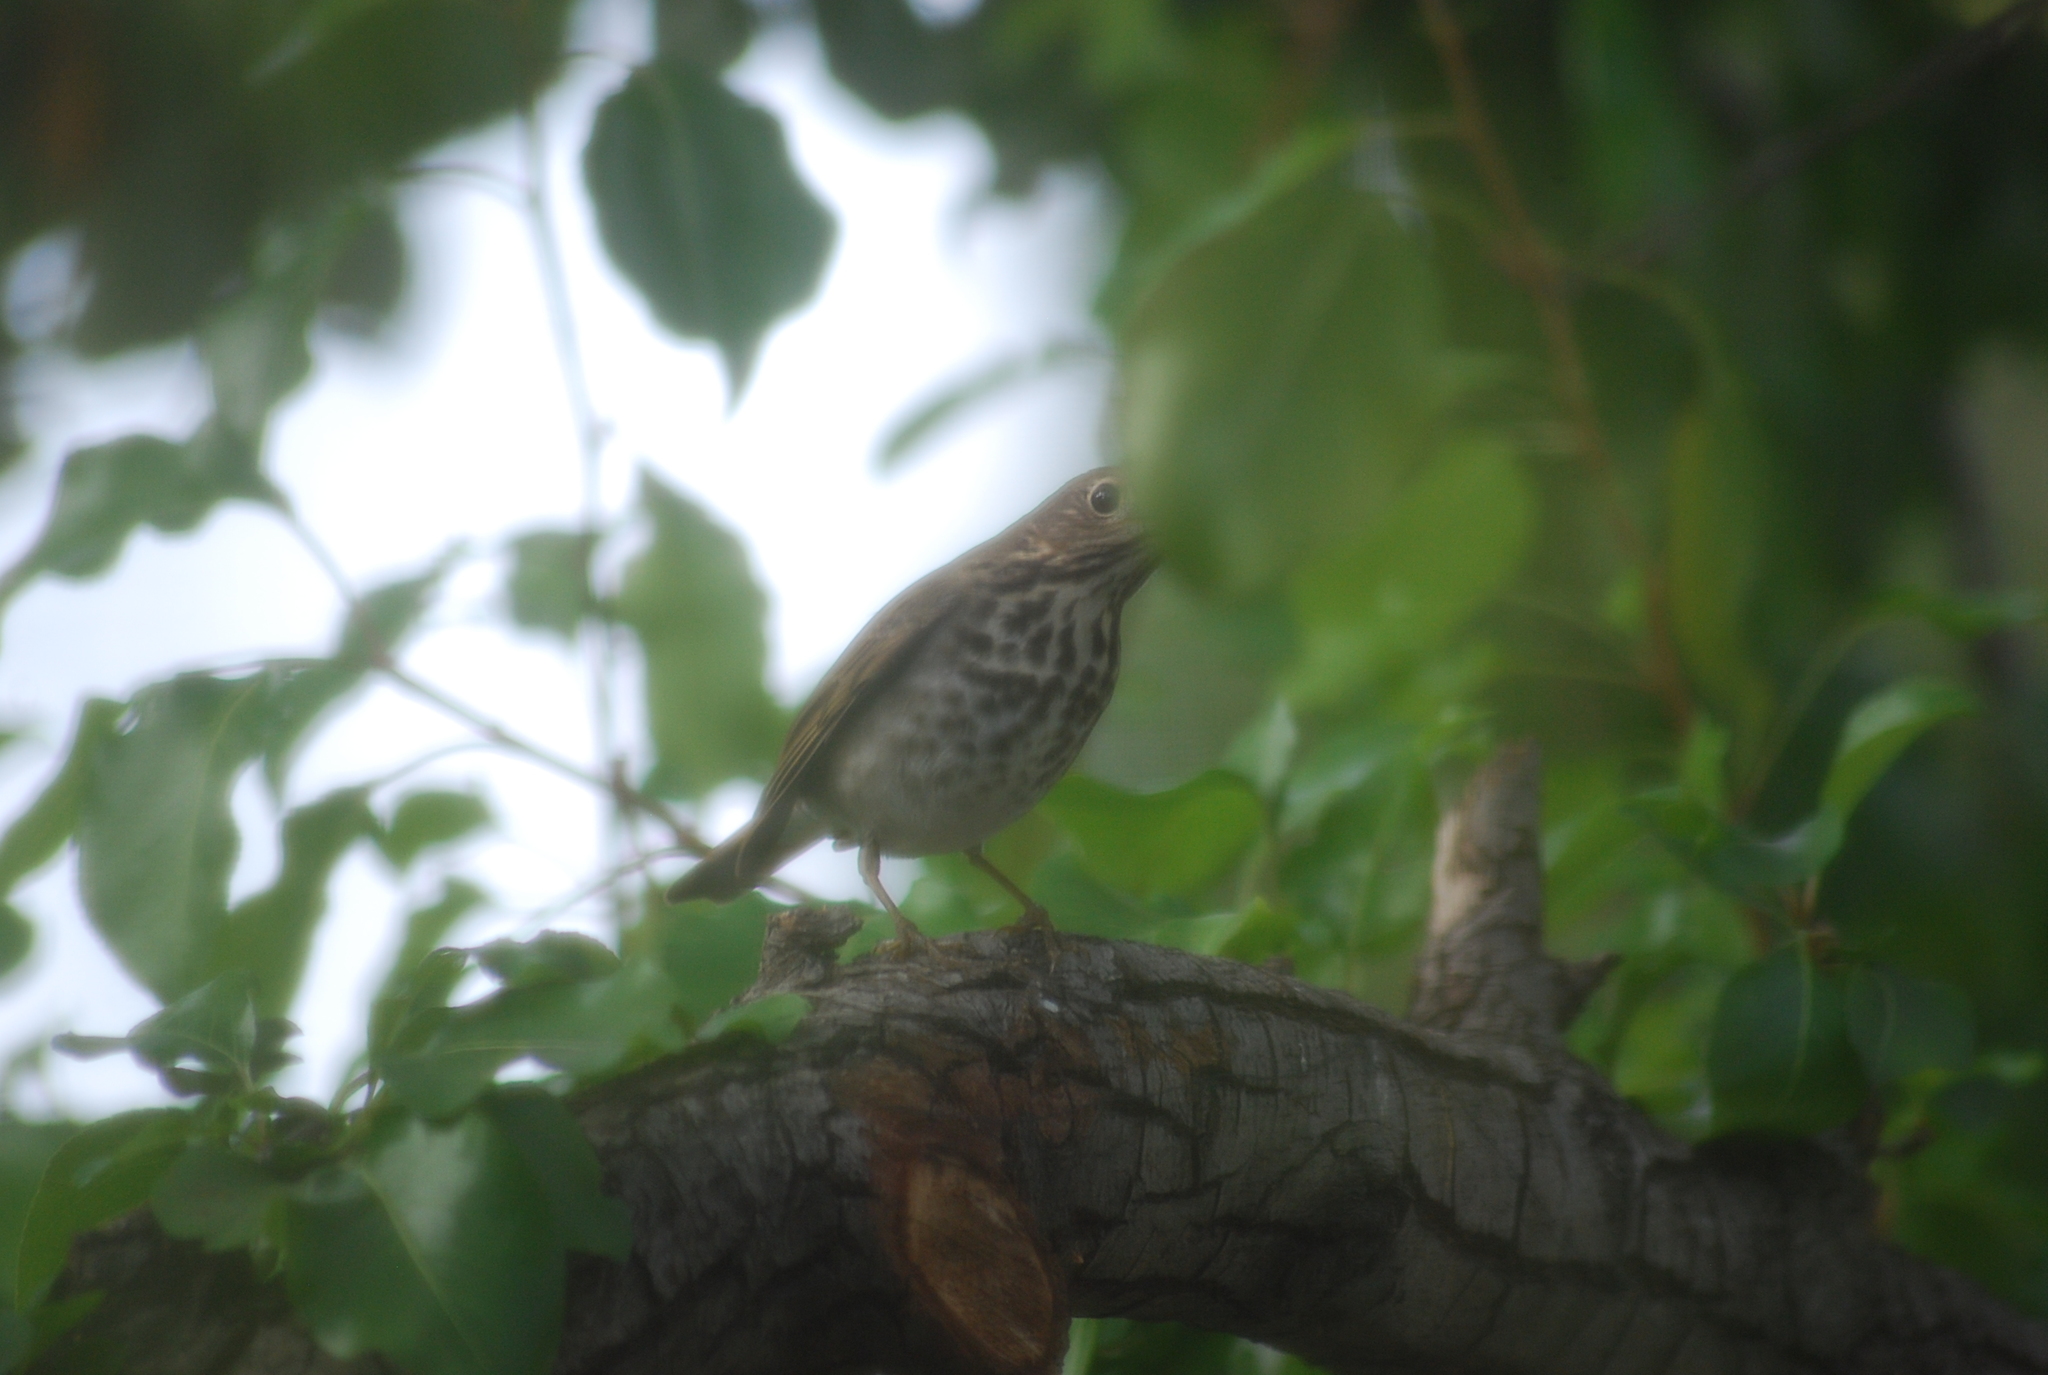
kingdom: Animalia
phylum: Chordata
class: Aves
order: Passeriformes
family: Turdidae
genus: Catharus
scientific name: Catharus guttatus
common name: Hermit thrush
